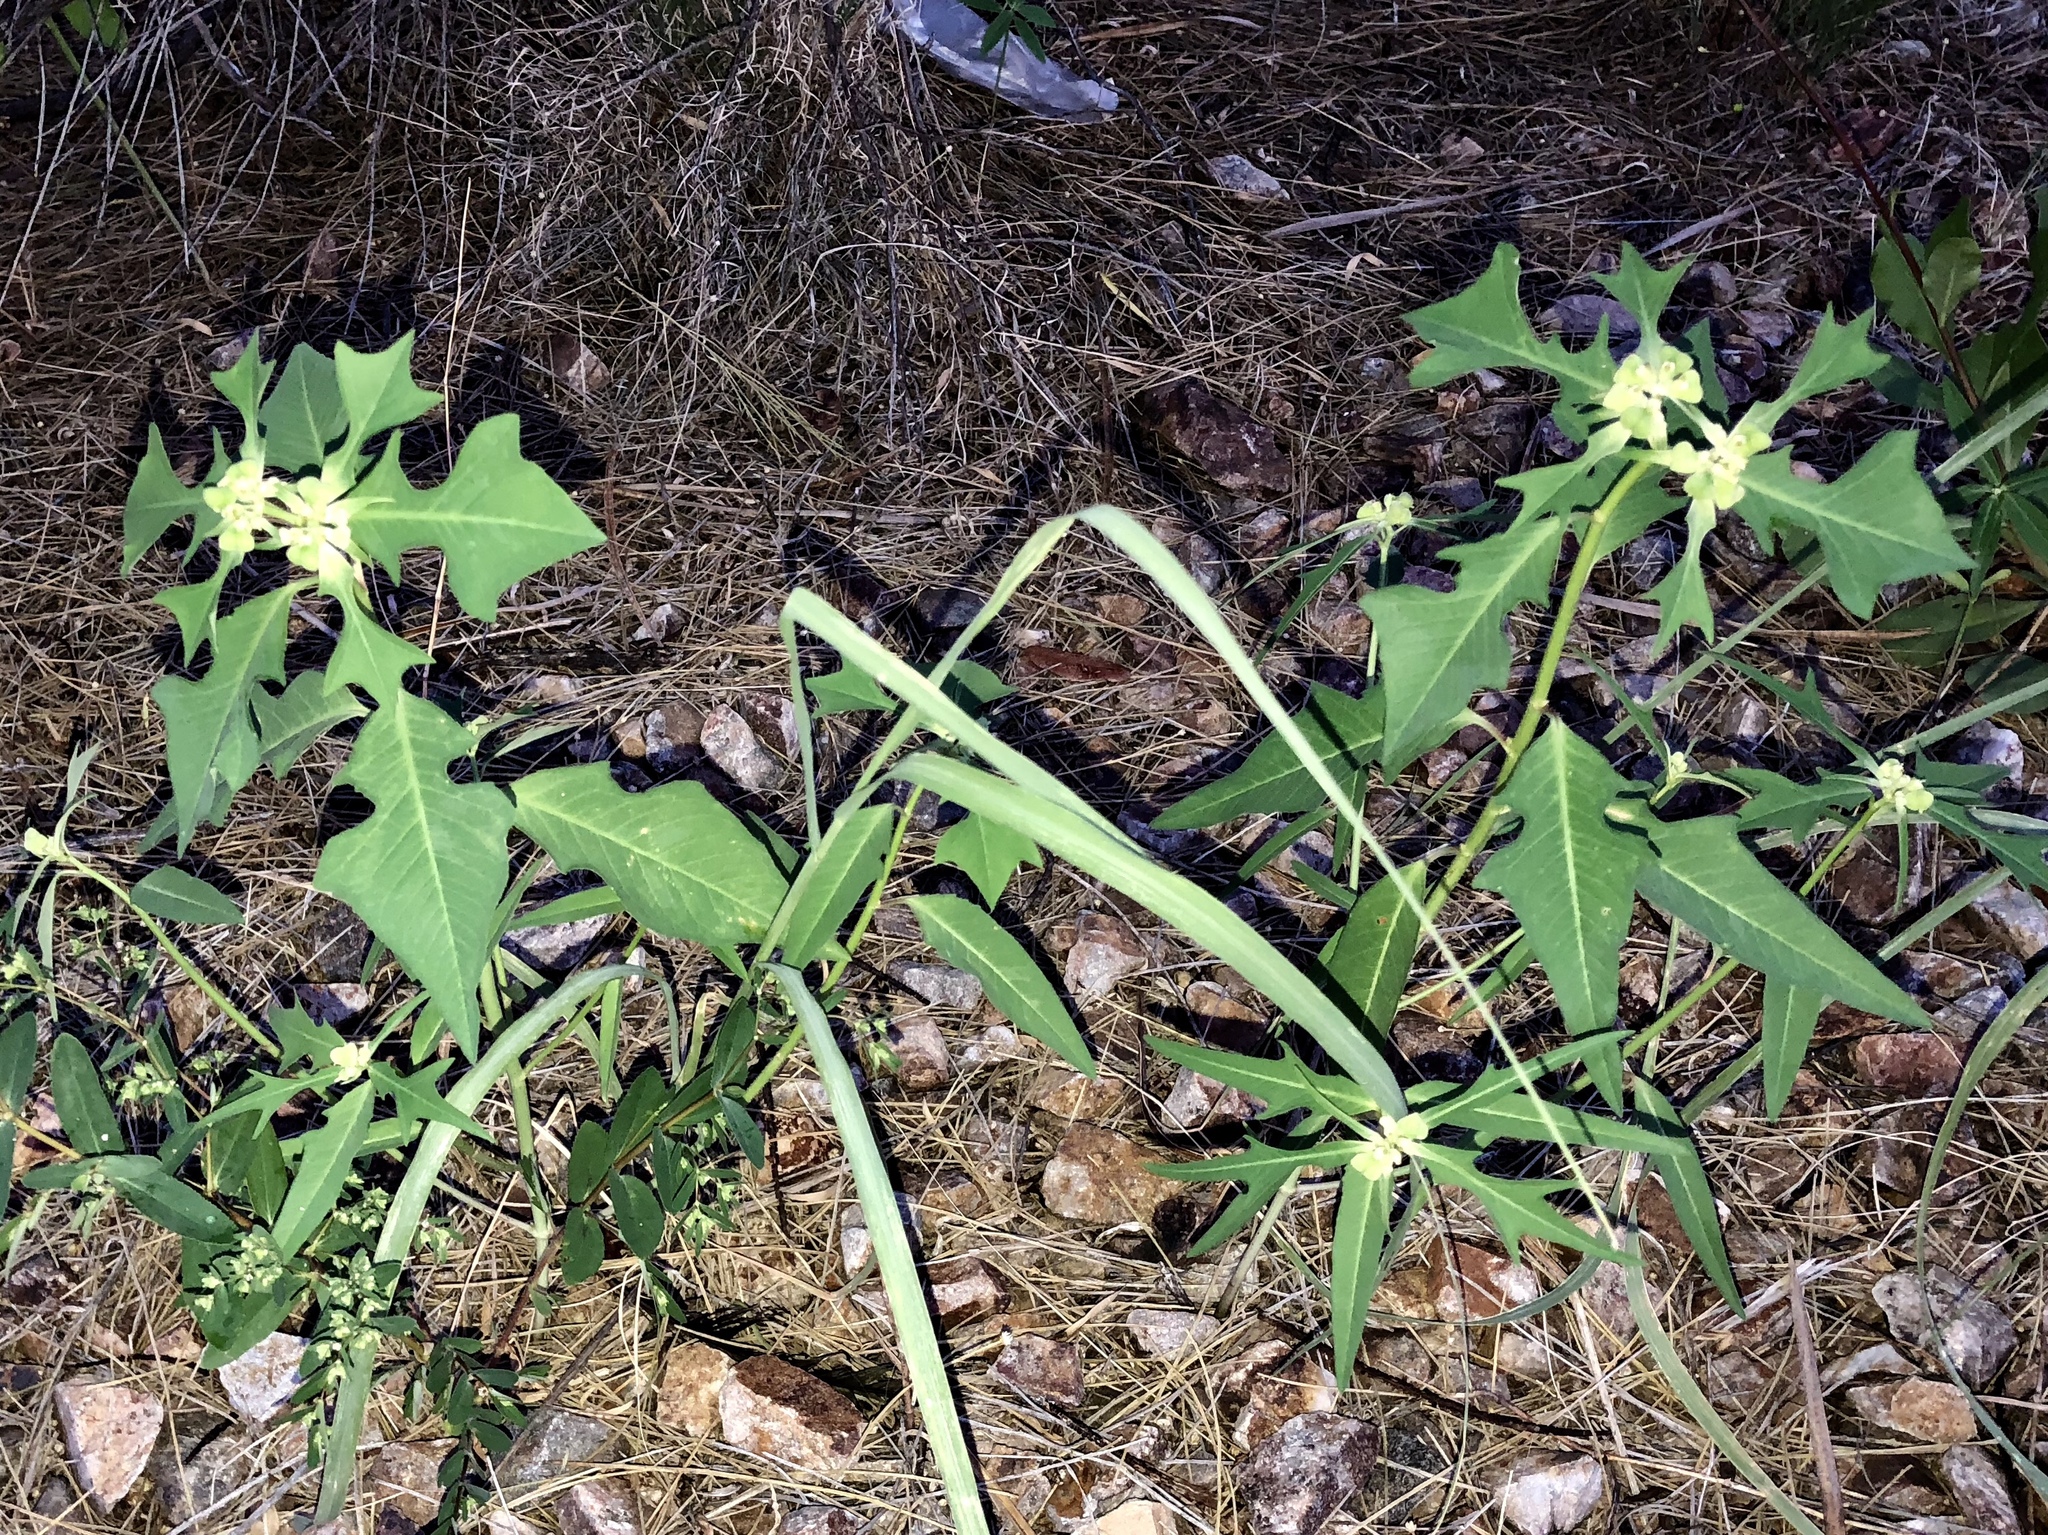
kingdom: Plantae
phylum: Tracheophyta
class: Magnoliopsida
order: Malpighiales
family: Euphorbiaceae
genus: Euphorbia
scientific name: Euphorbia heterophylla
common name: Mexican fireplant
